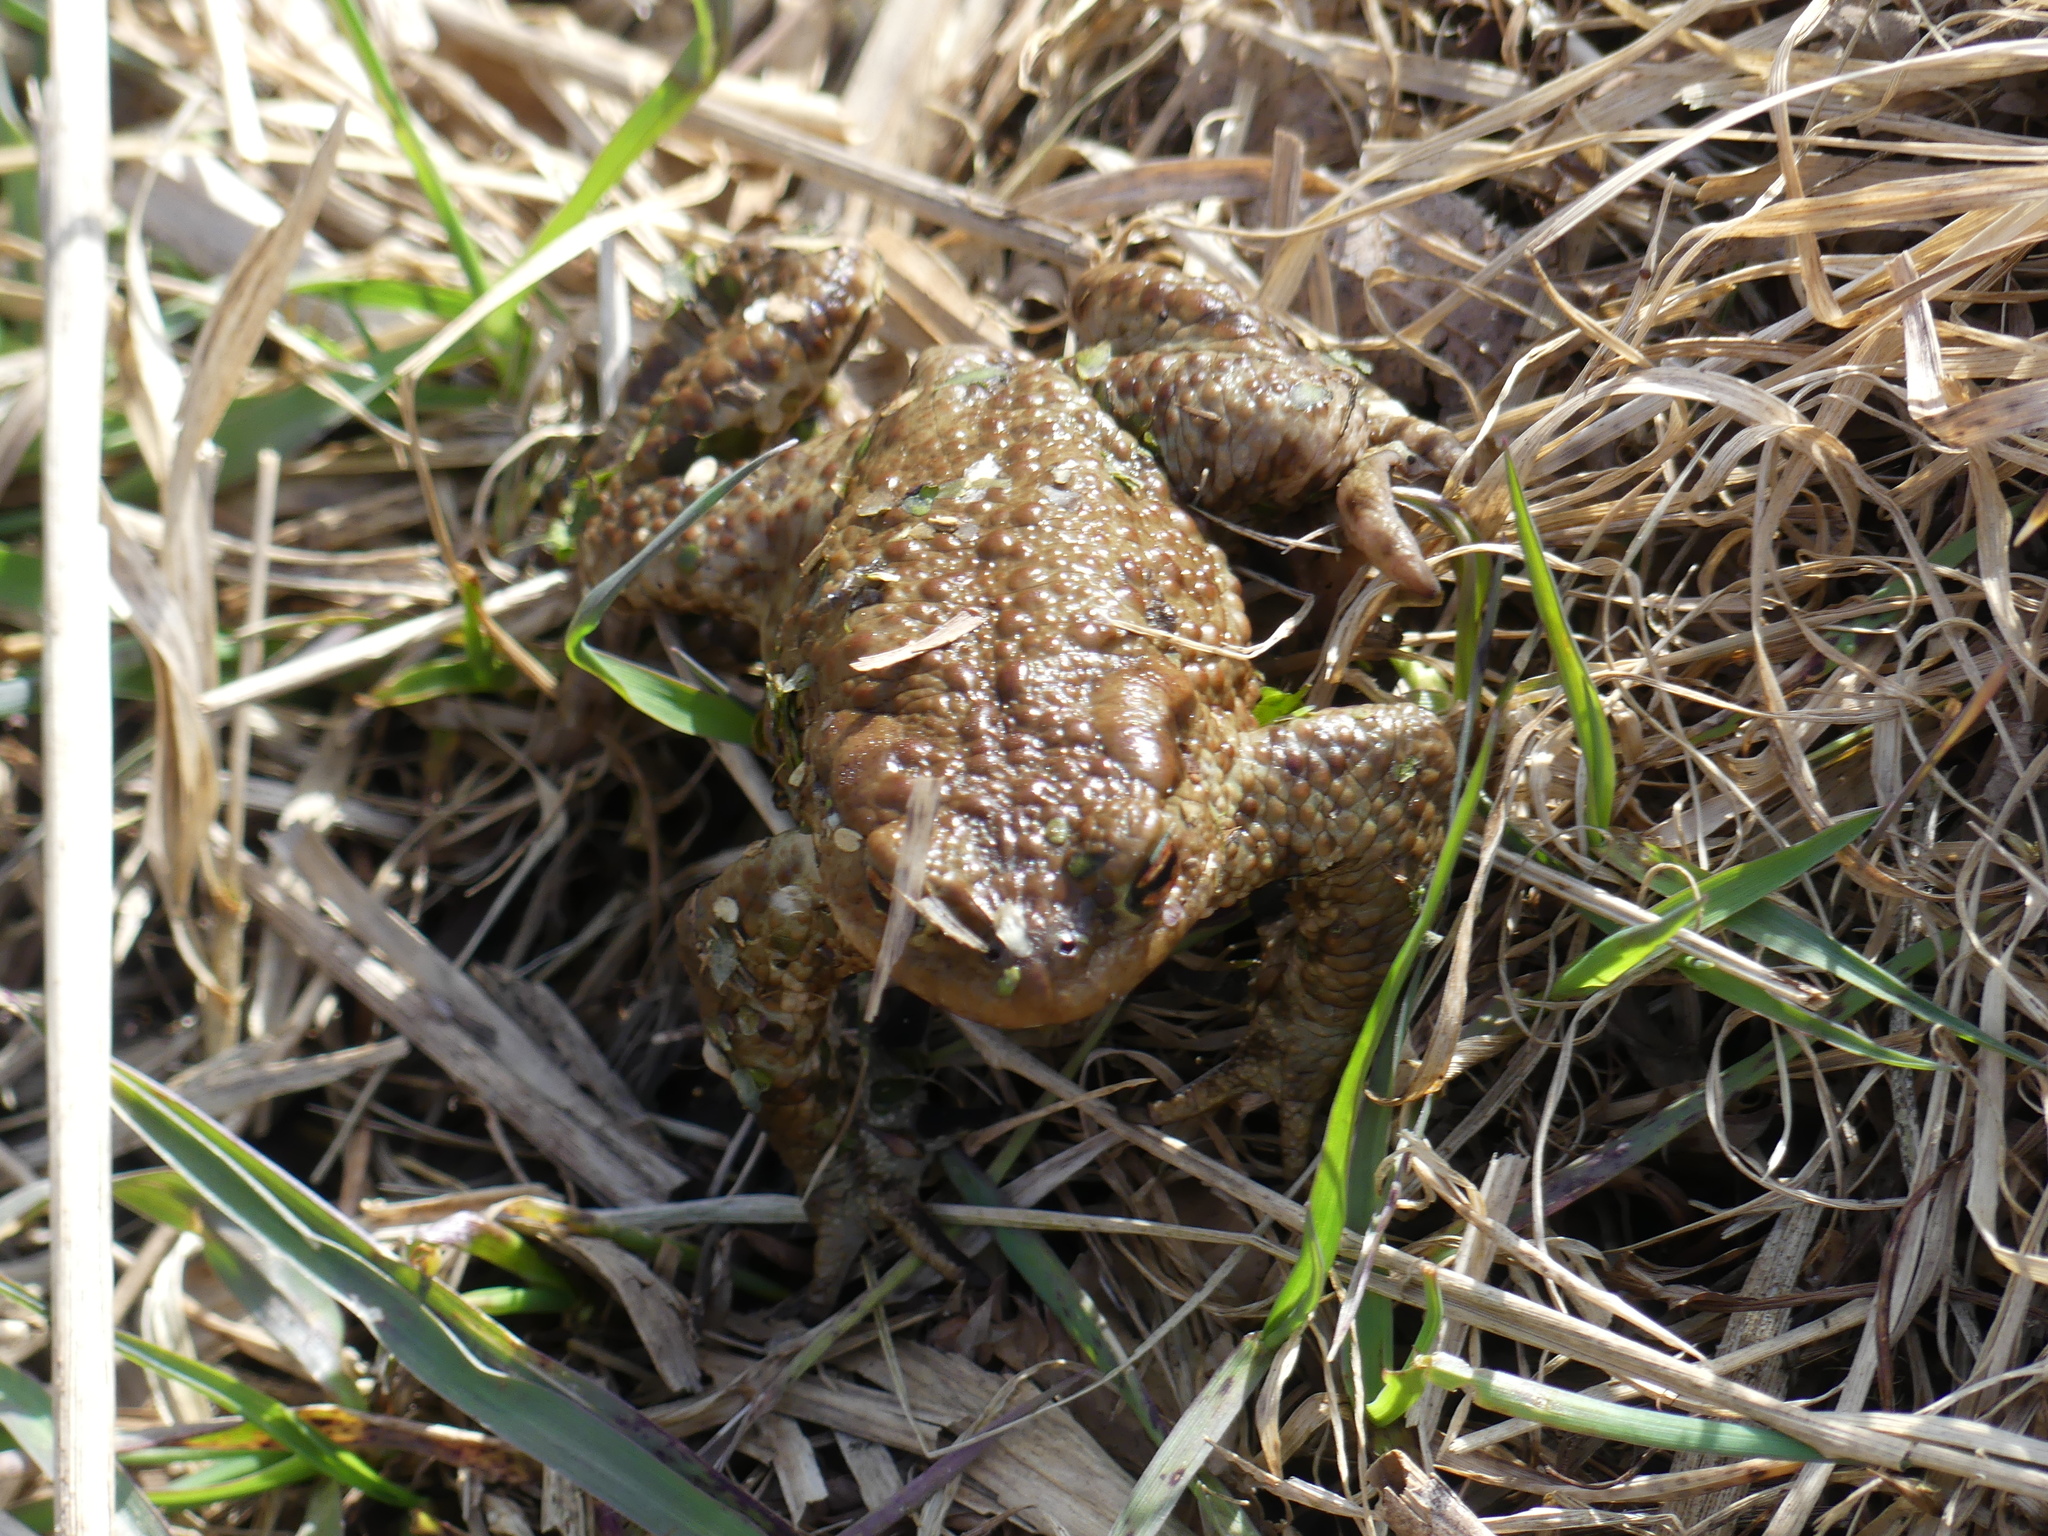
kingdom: Animalia
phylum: Chordata
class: Amphibia
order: Anura
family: Bufonidae
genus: Bufo
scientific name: Bufo bufo
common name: Common toad
